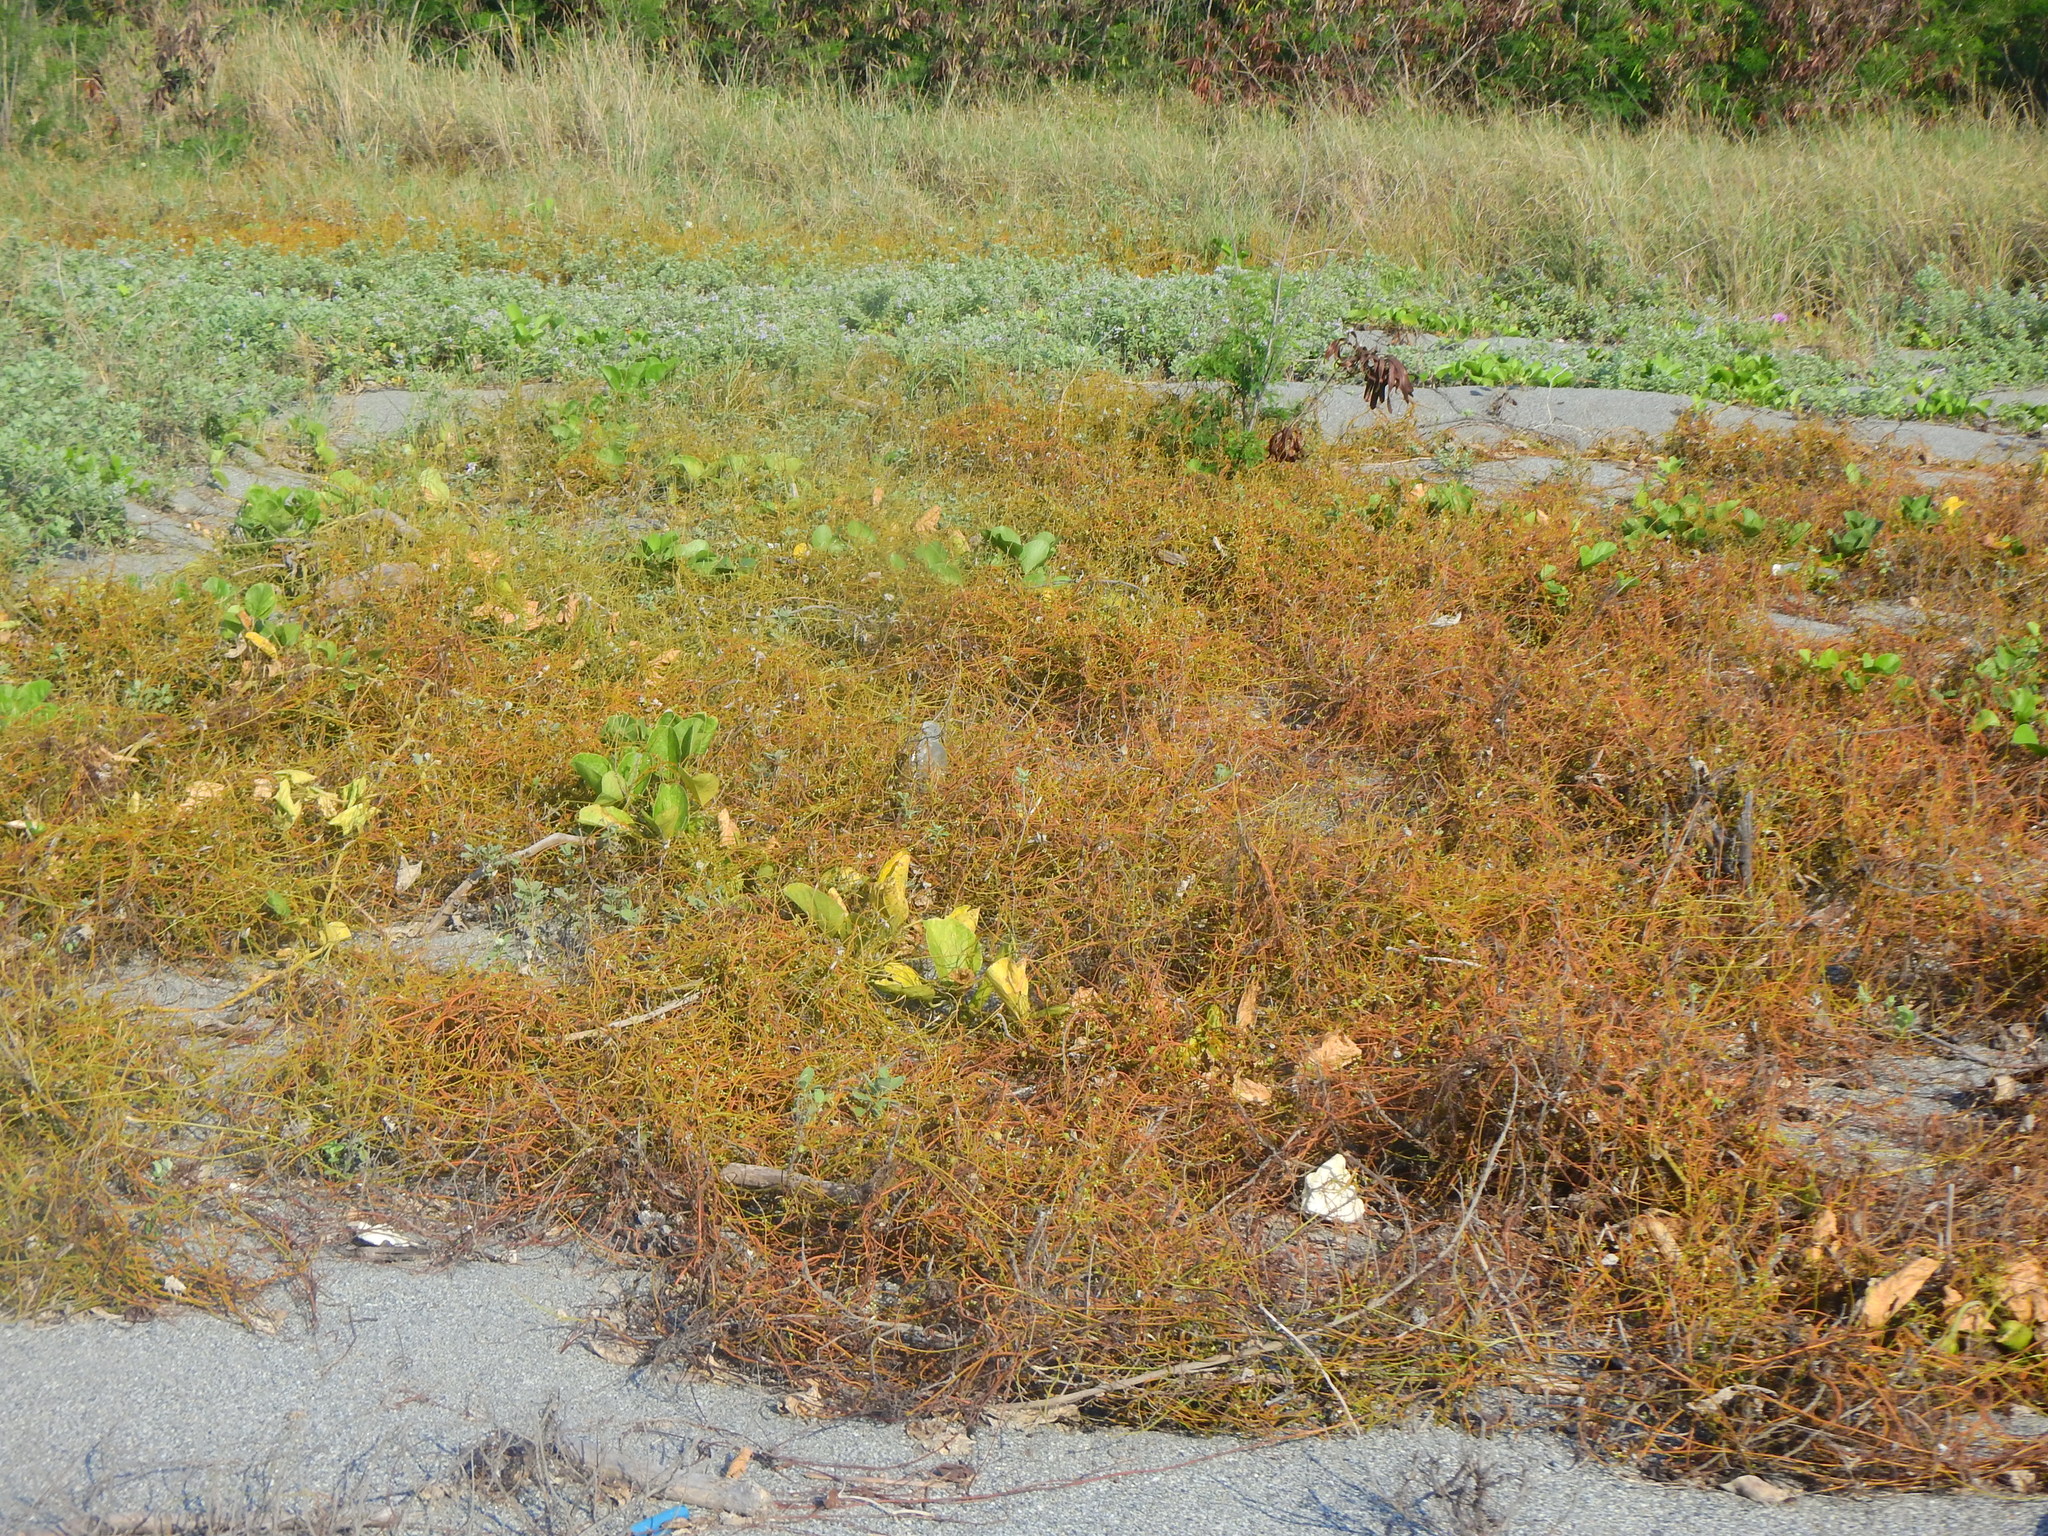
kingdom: Plantae
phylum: Tracheophyta
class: Magnoliopsida
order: Laurales
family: Lauraceae
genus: Cassytha
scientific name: Cassytha filiformis
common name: Dodder-laurel
